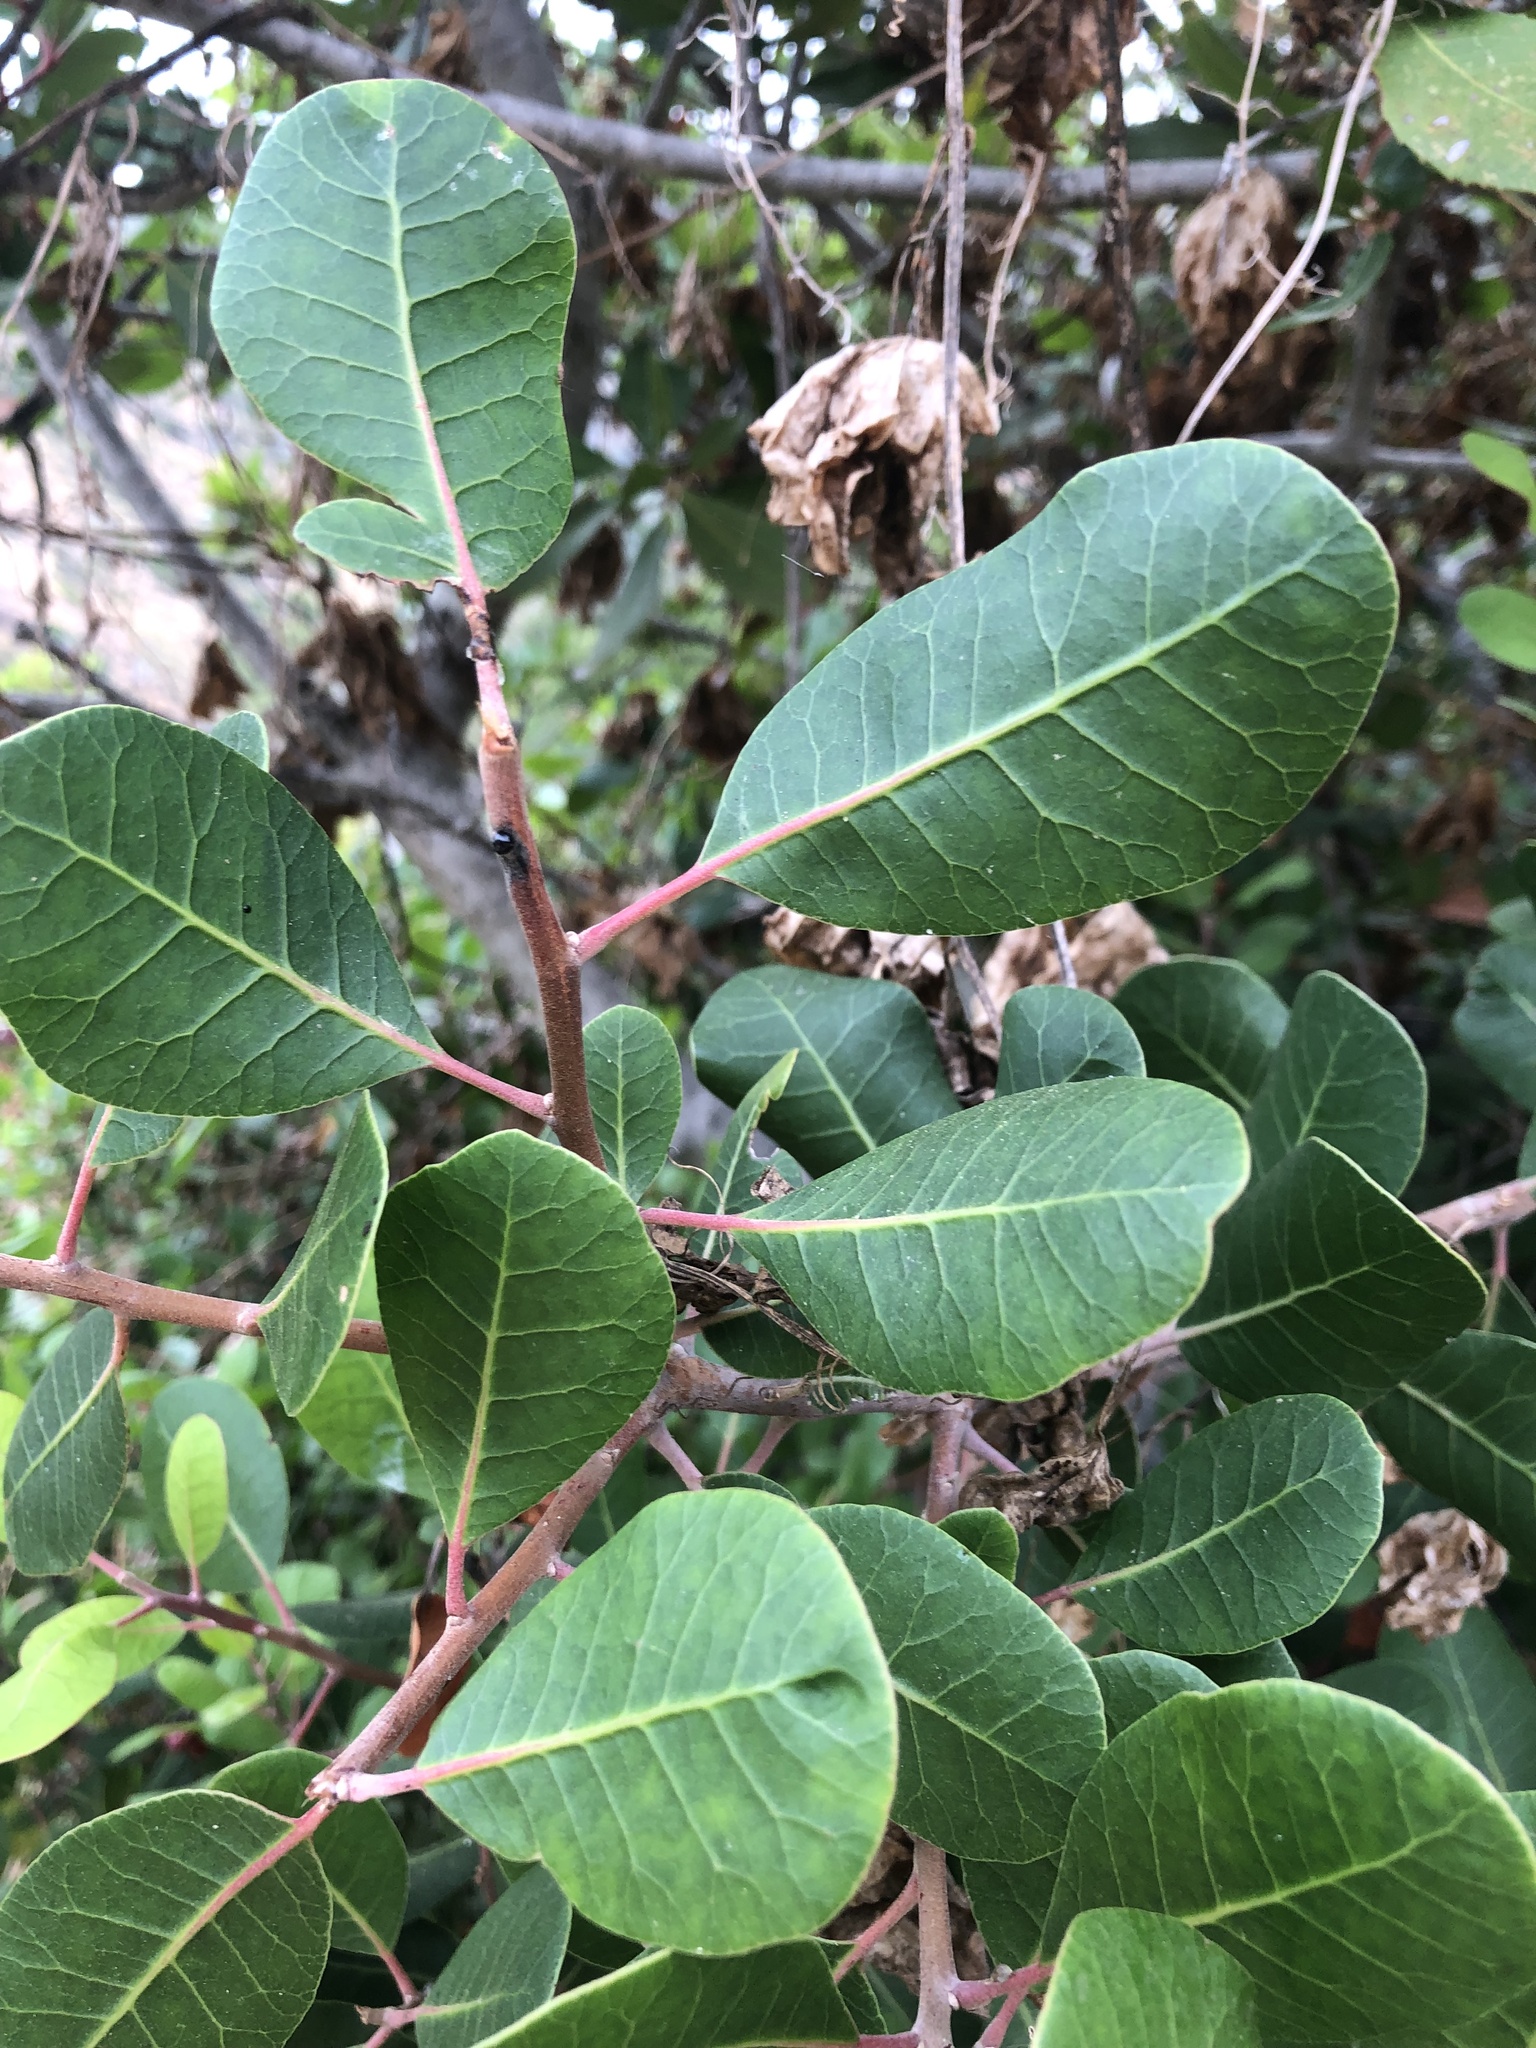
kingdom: Plantae
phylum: Tracheophyta
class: Magnoliopsida
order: Rosales
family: Rosaceae
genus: Heteromeles
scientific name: Heteromeles arbutifolia
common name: California-holly
